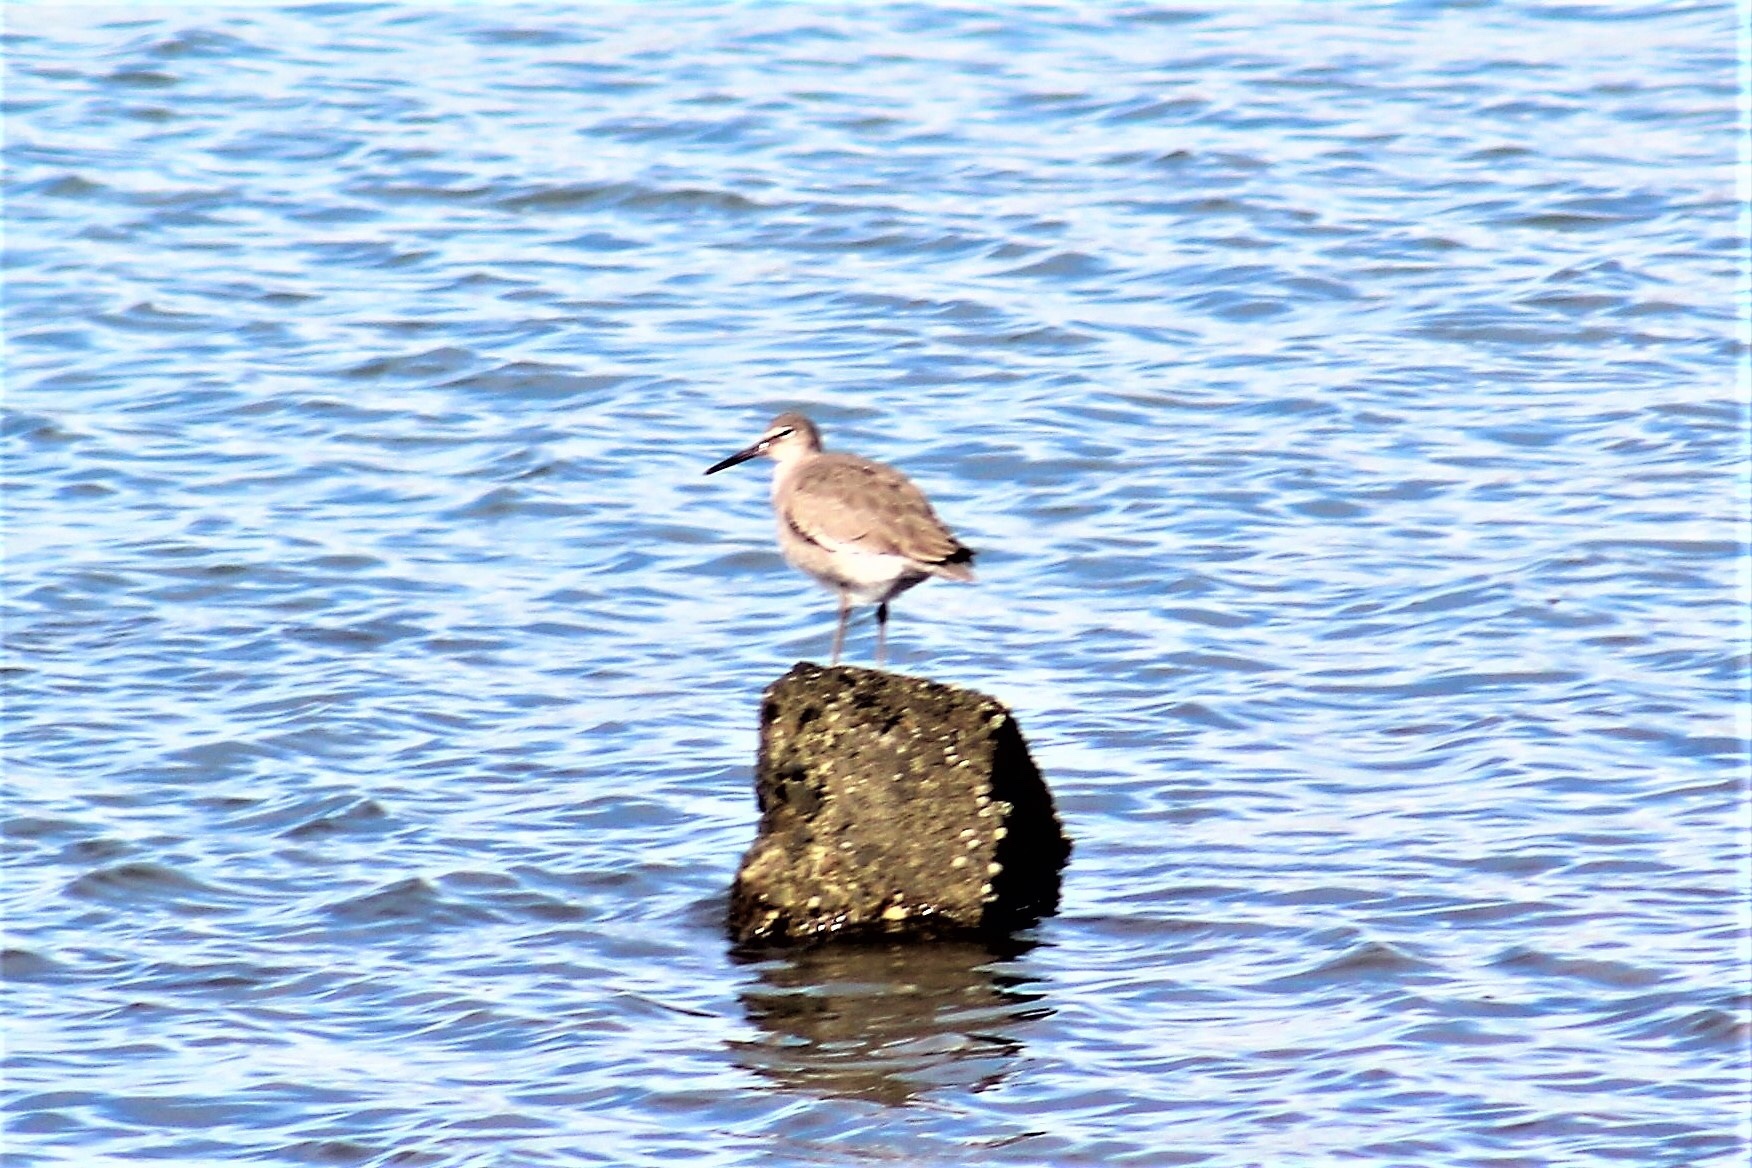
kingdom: Animalia
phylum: Chordata
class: Aves
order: Charadriiformes
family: Scolopacidae
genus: Tringa
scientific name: Tringa semipalmata
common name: Willet
